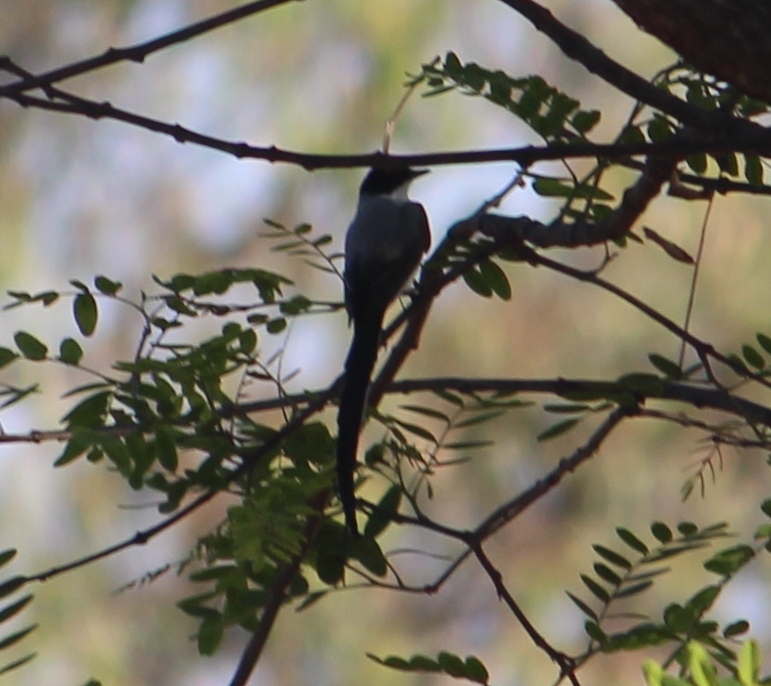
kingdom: Animalia
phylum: Chordata
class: Aves
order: Passeriformes
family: Tyrannidae
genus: Tyrannus
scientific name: Tyrannus savana
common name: Fork-tailed flycatcher
